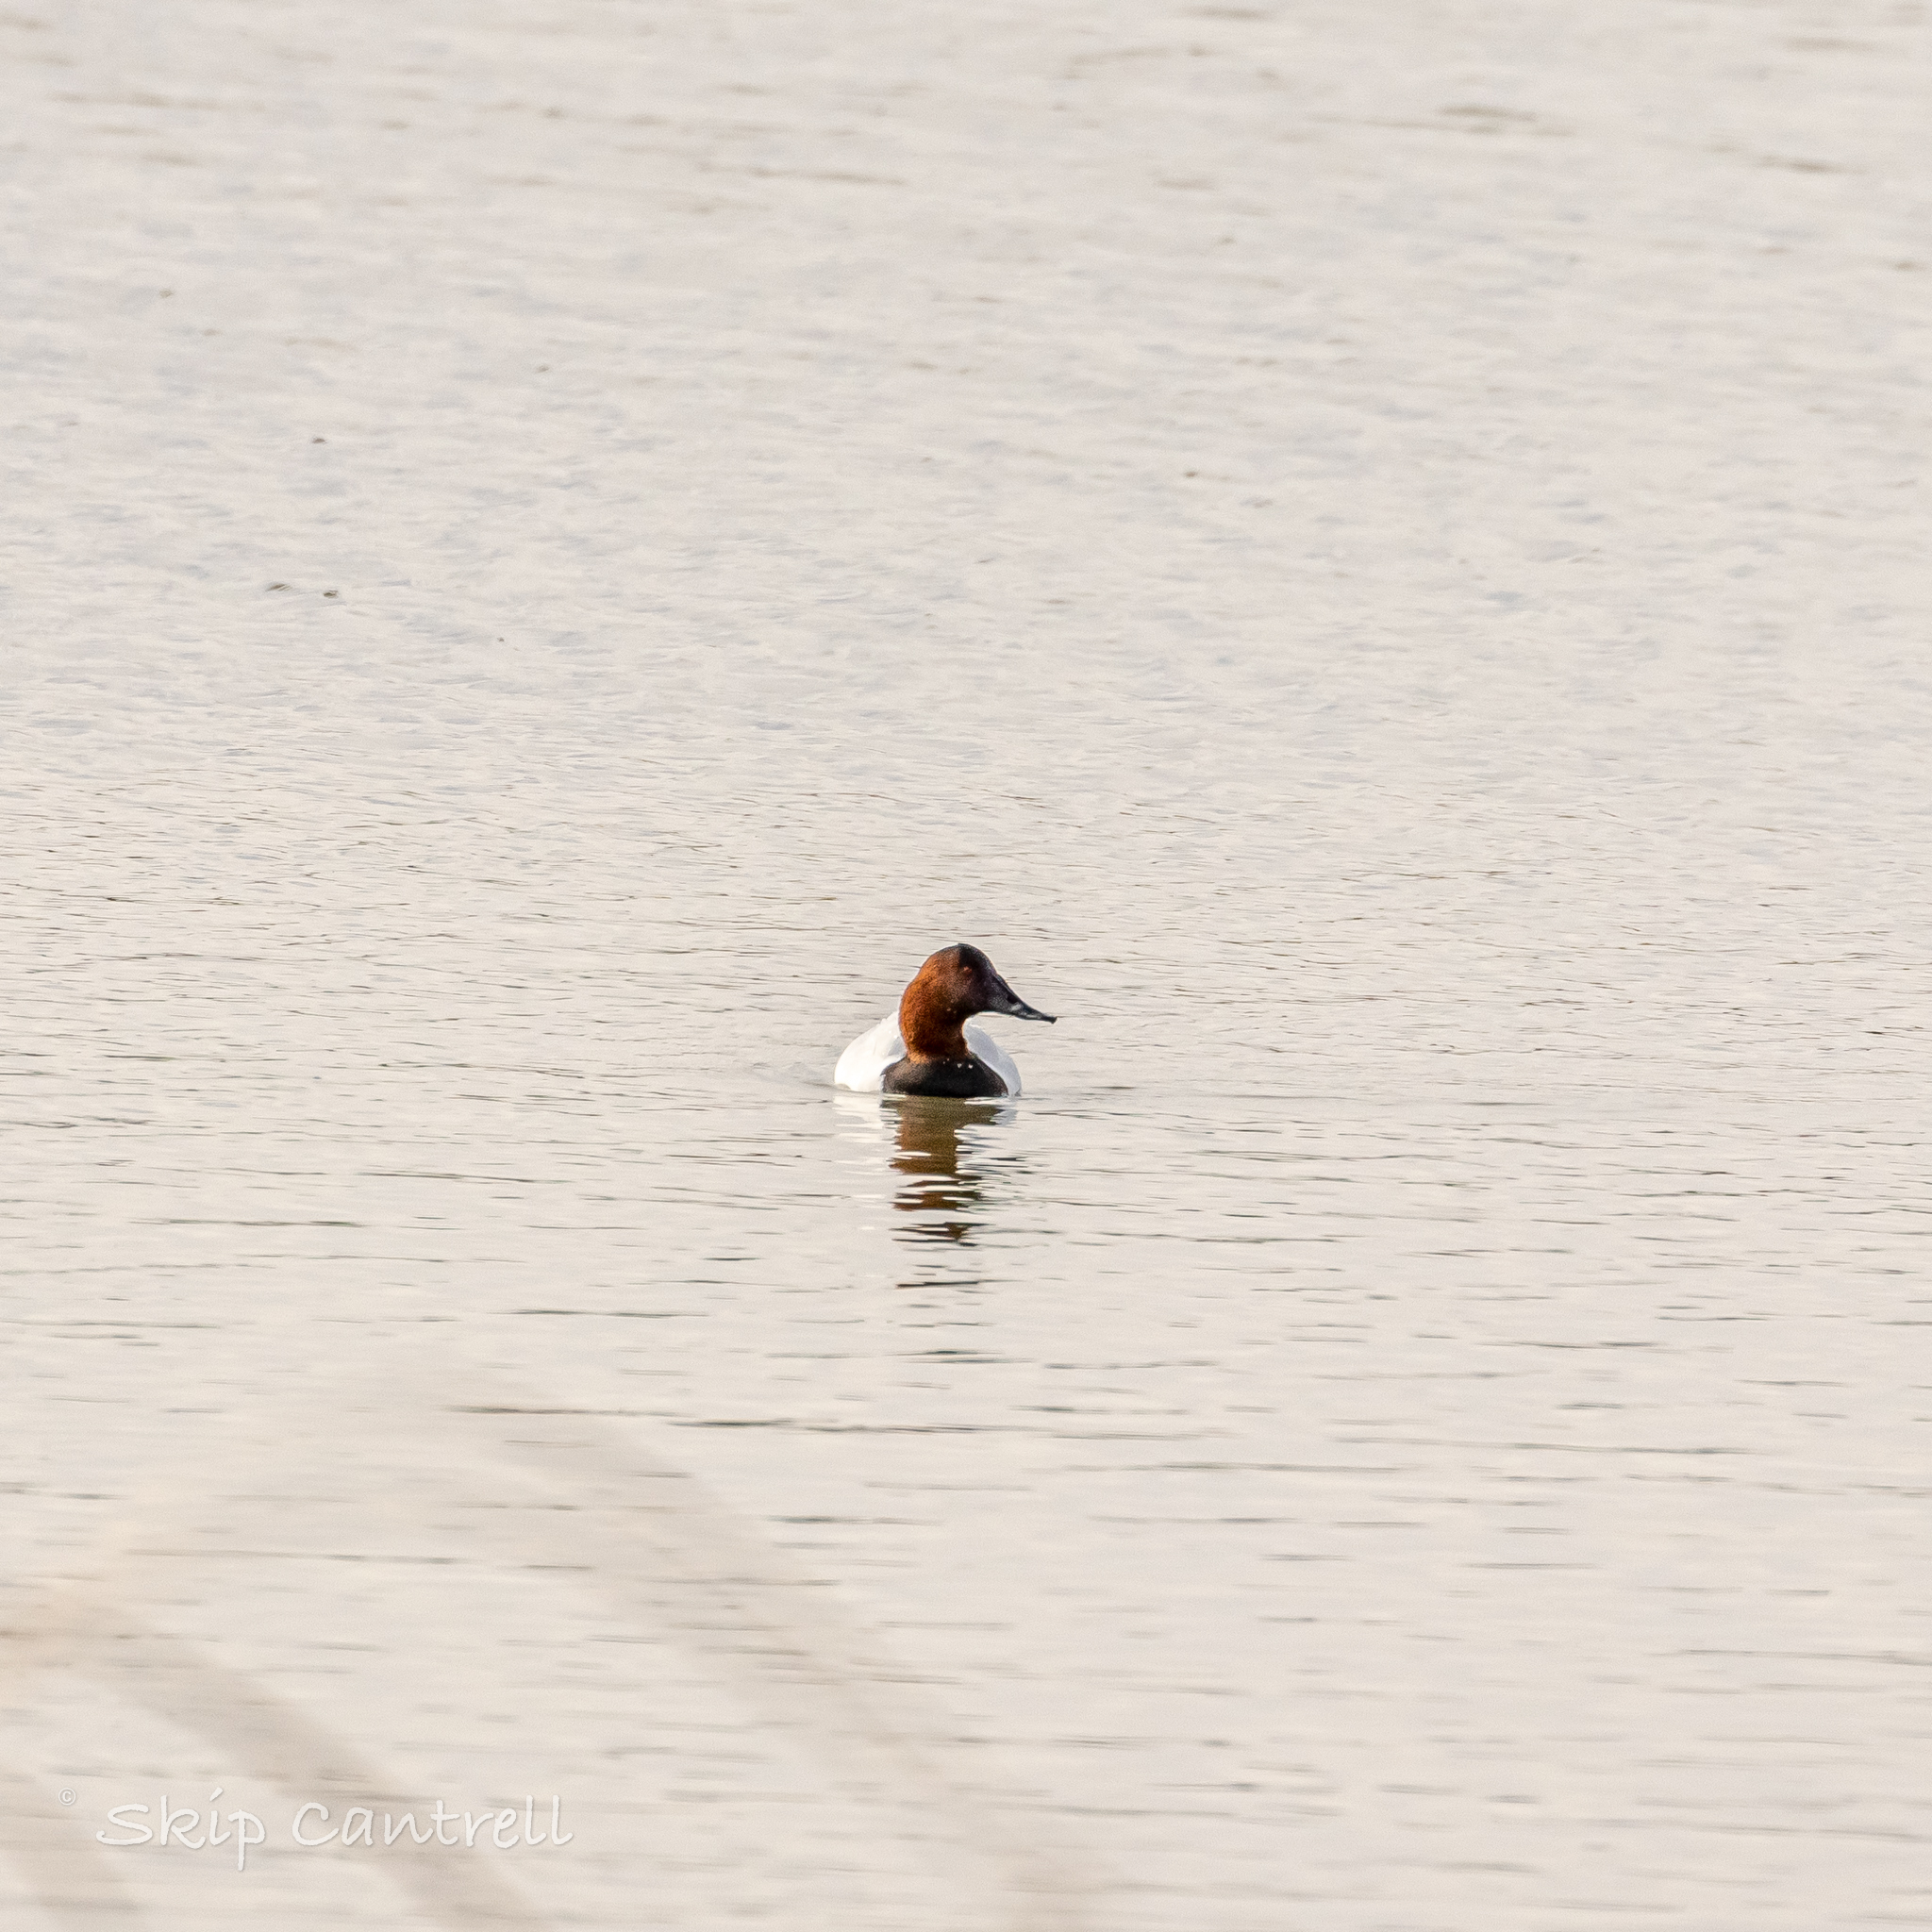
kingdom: Animalia
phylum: Chordata
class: Aves
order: Anseriformes
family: Anatidae
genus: Aythya
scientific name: Aythya valisineria
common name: Canvasback
